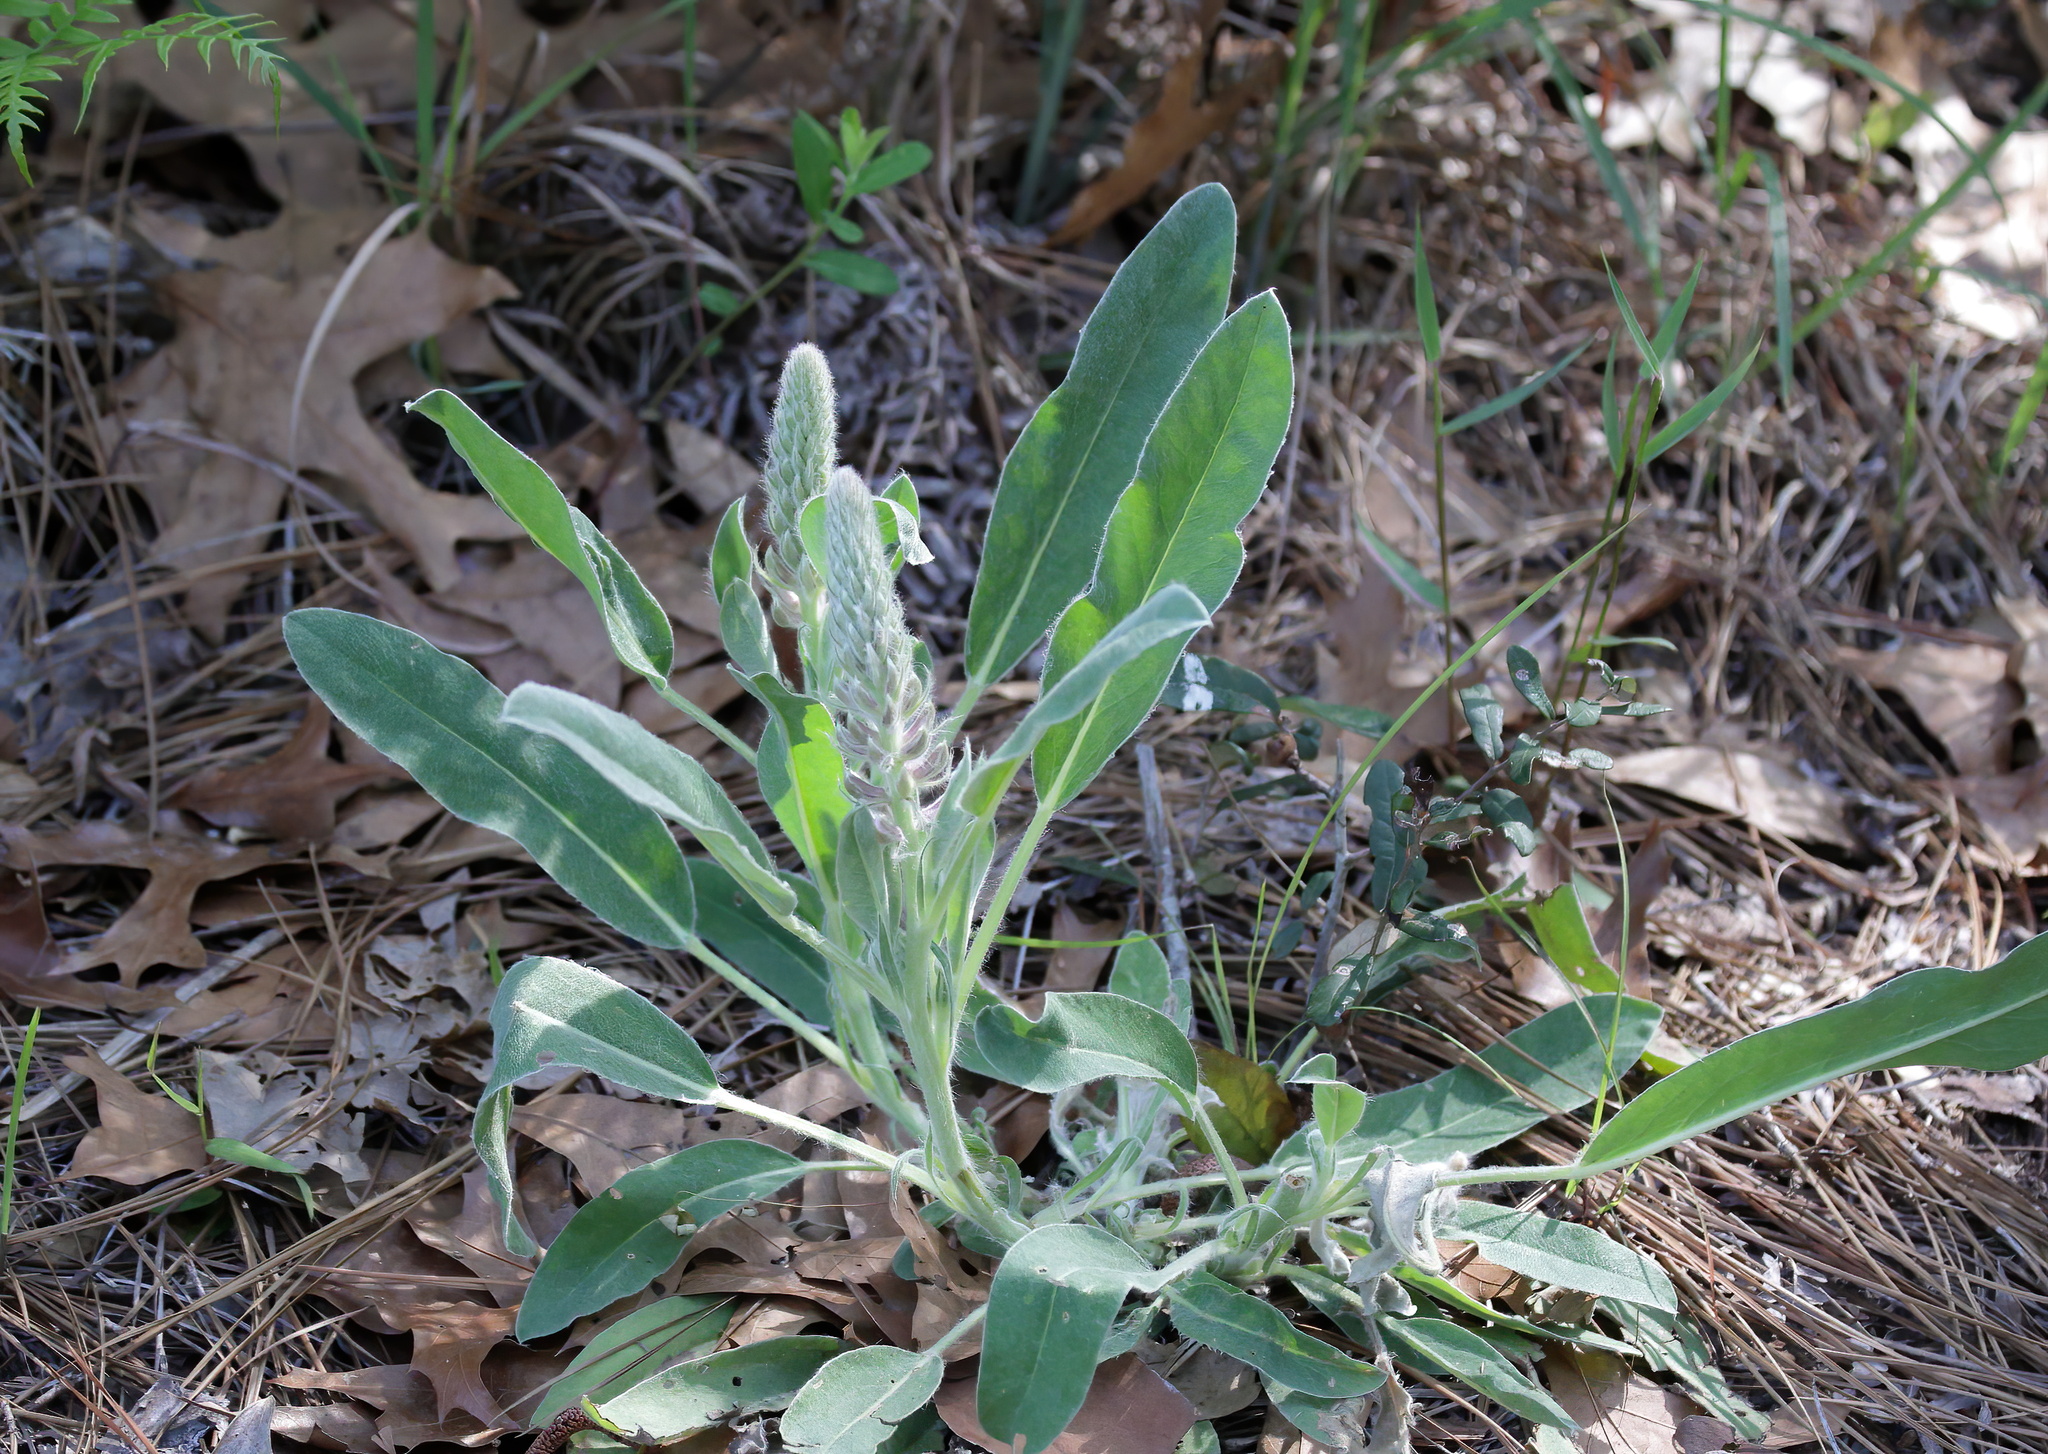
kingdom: Plantae
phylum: Tracheophyta
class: Magnoliopsida
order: Fabales
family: Fabaceae
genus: Lupinus
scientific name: Lupinus villosus
